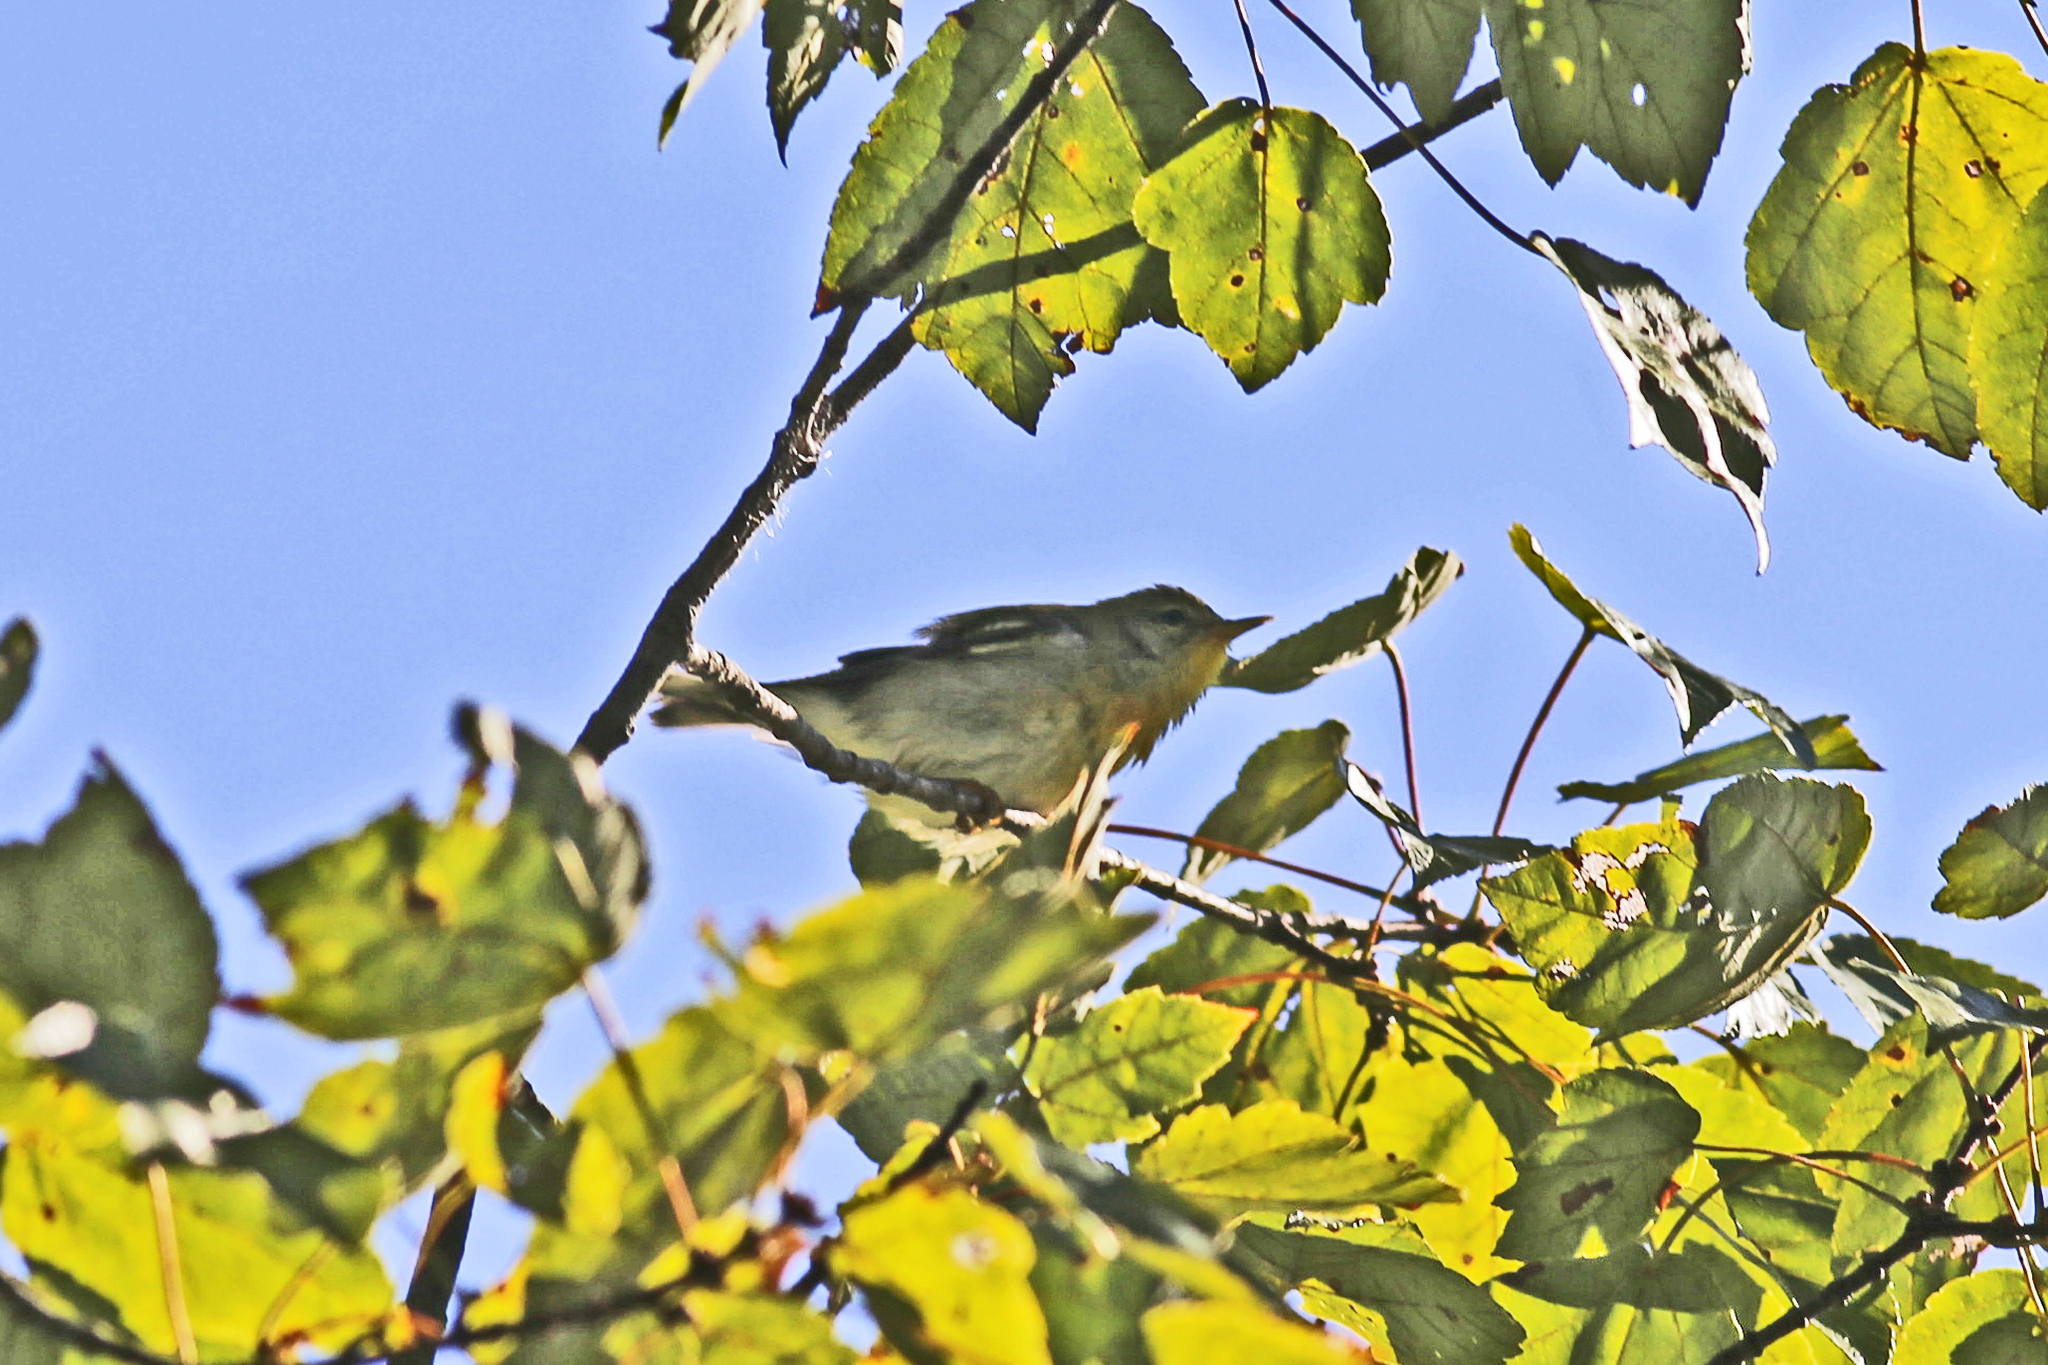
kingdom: Animalia
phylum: Chordata
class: Aves
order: Passeriformes
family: Parulidae
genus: Setophaga
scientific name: Setophaga americana
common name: Northern parula
